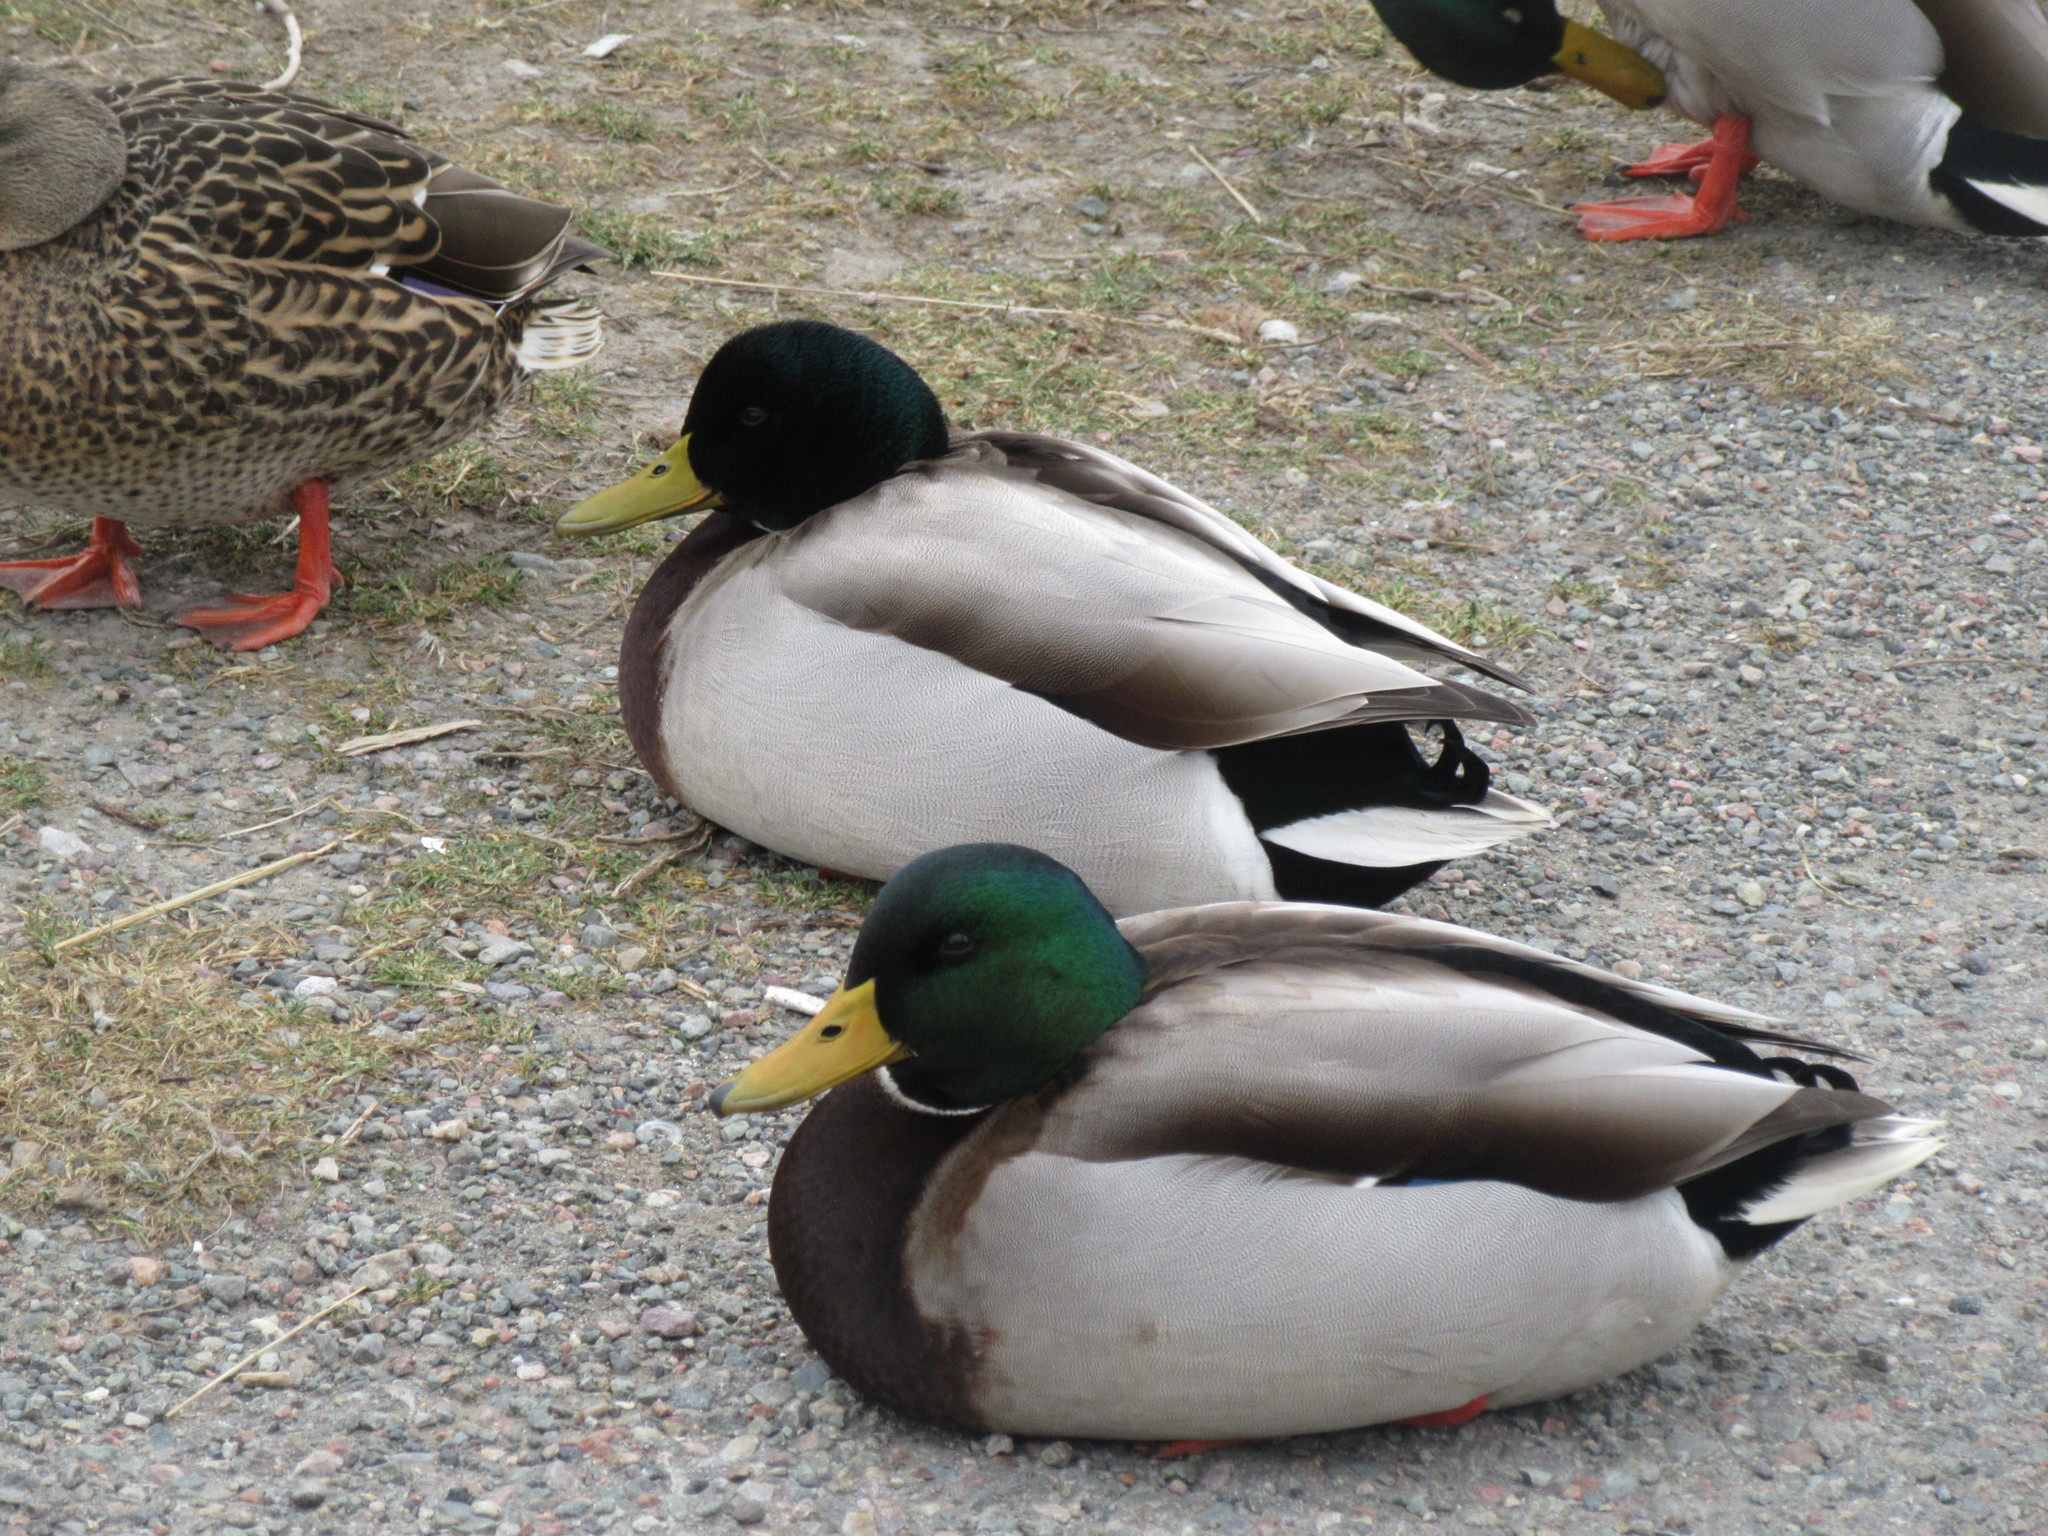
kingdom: Animalia
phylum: Chordata
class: Aves
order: Anseriformes
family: Anatidae
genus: Anas
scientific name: Anas platyrhynchos
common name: Mallard
